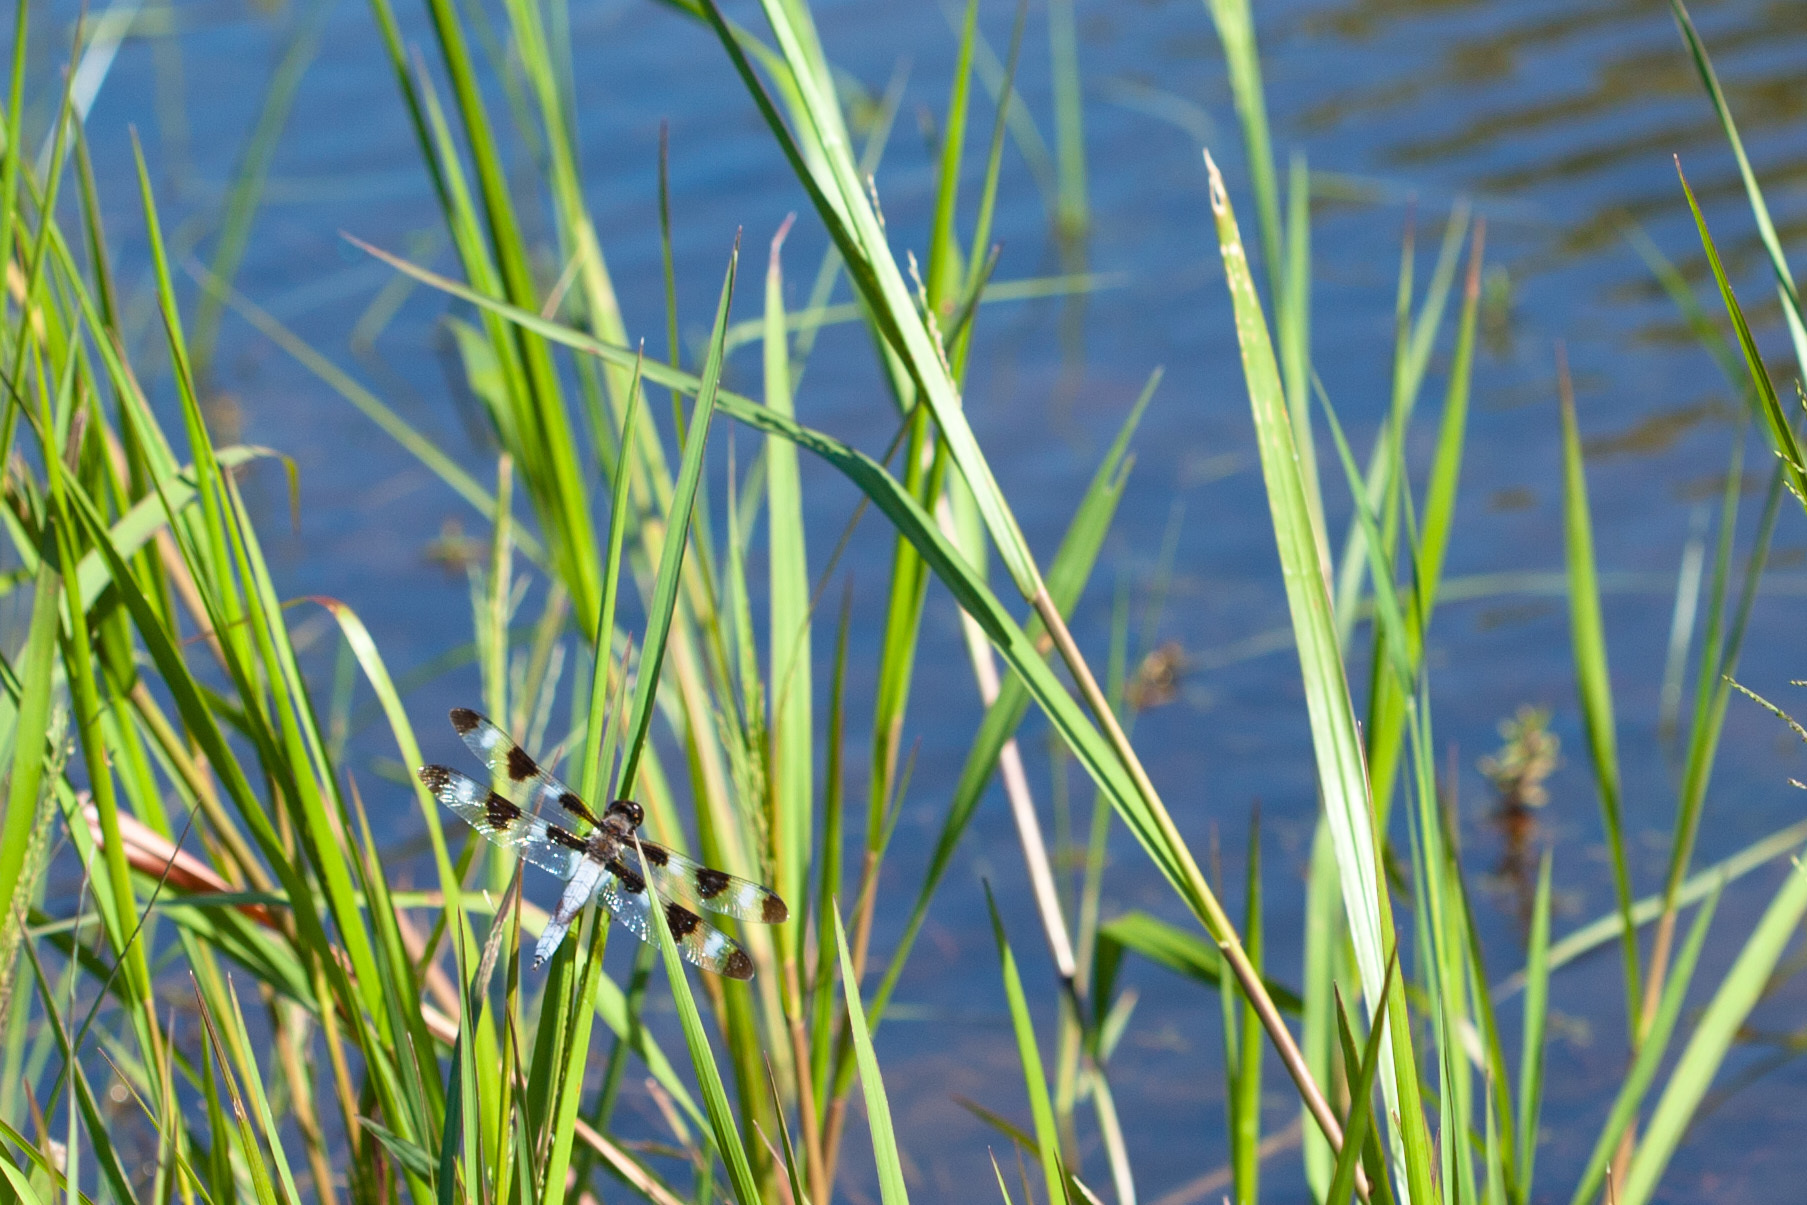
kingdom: Animalia
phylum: Arthropoda
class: Insecta
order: Odonata
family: Libellulidae
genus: Libellula
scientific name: Libellula pulchella
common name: Twelve-spotted skimmer
